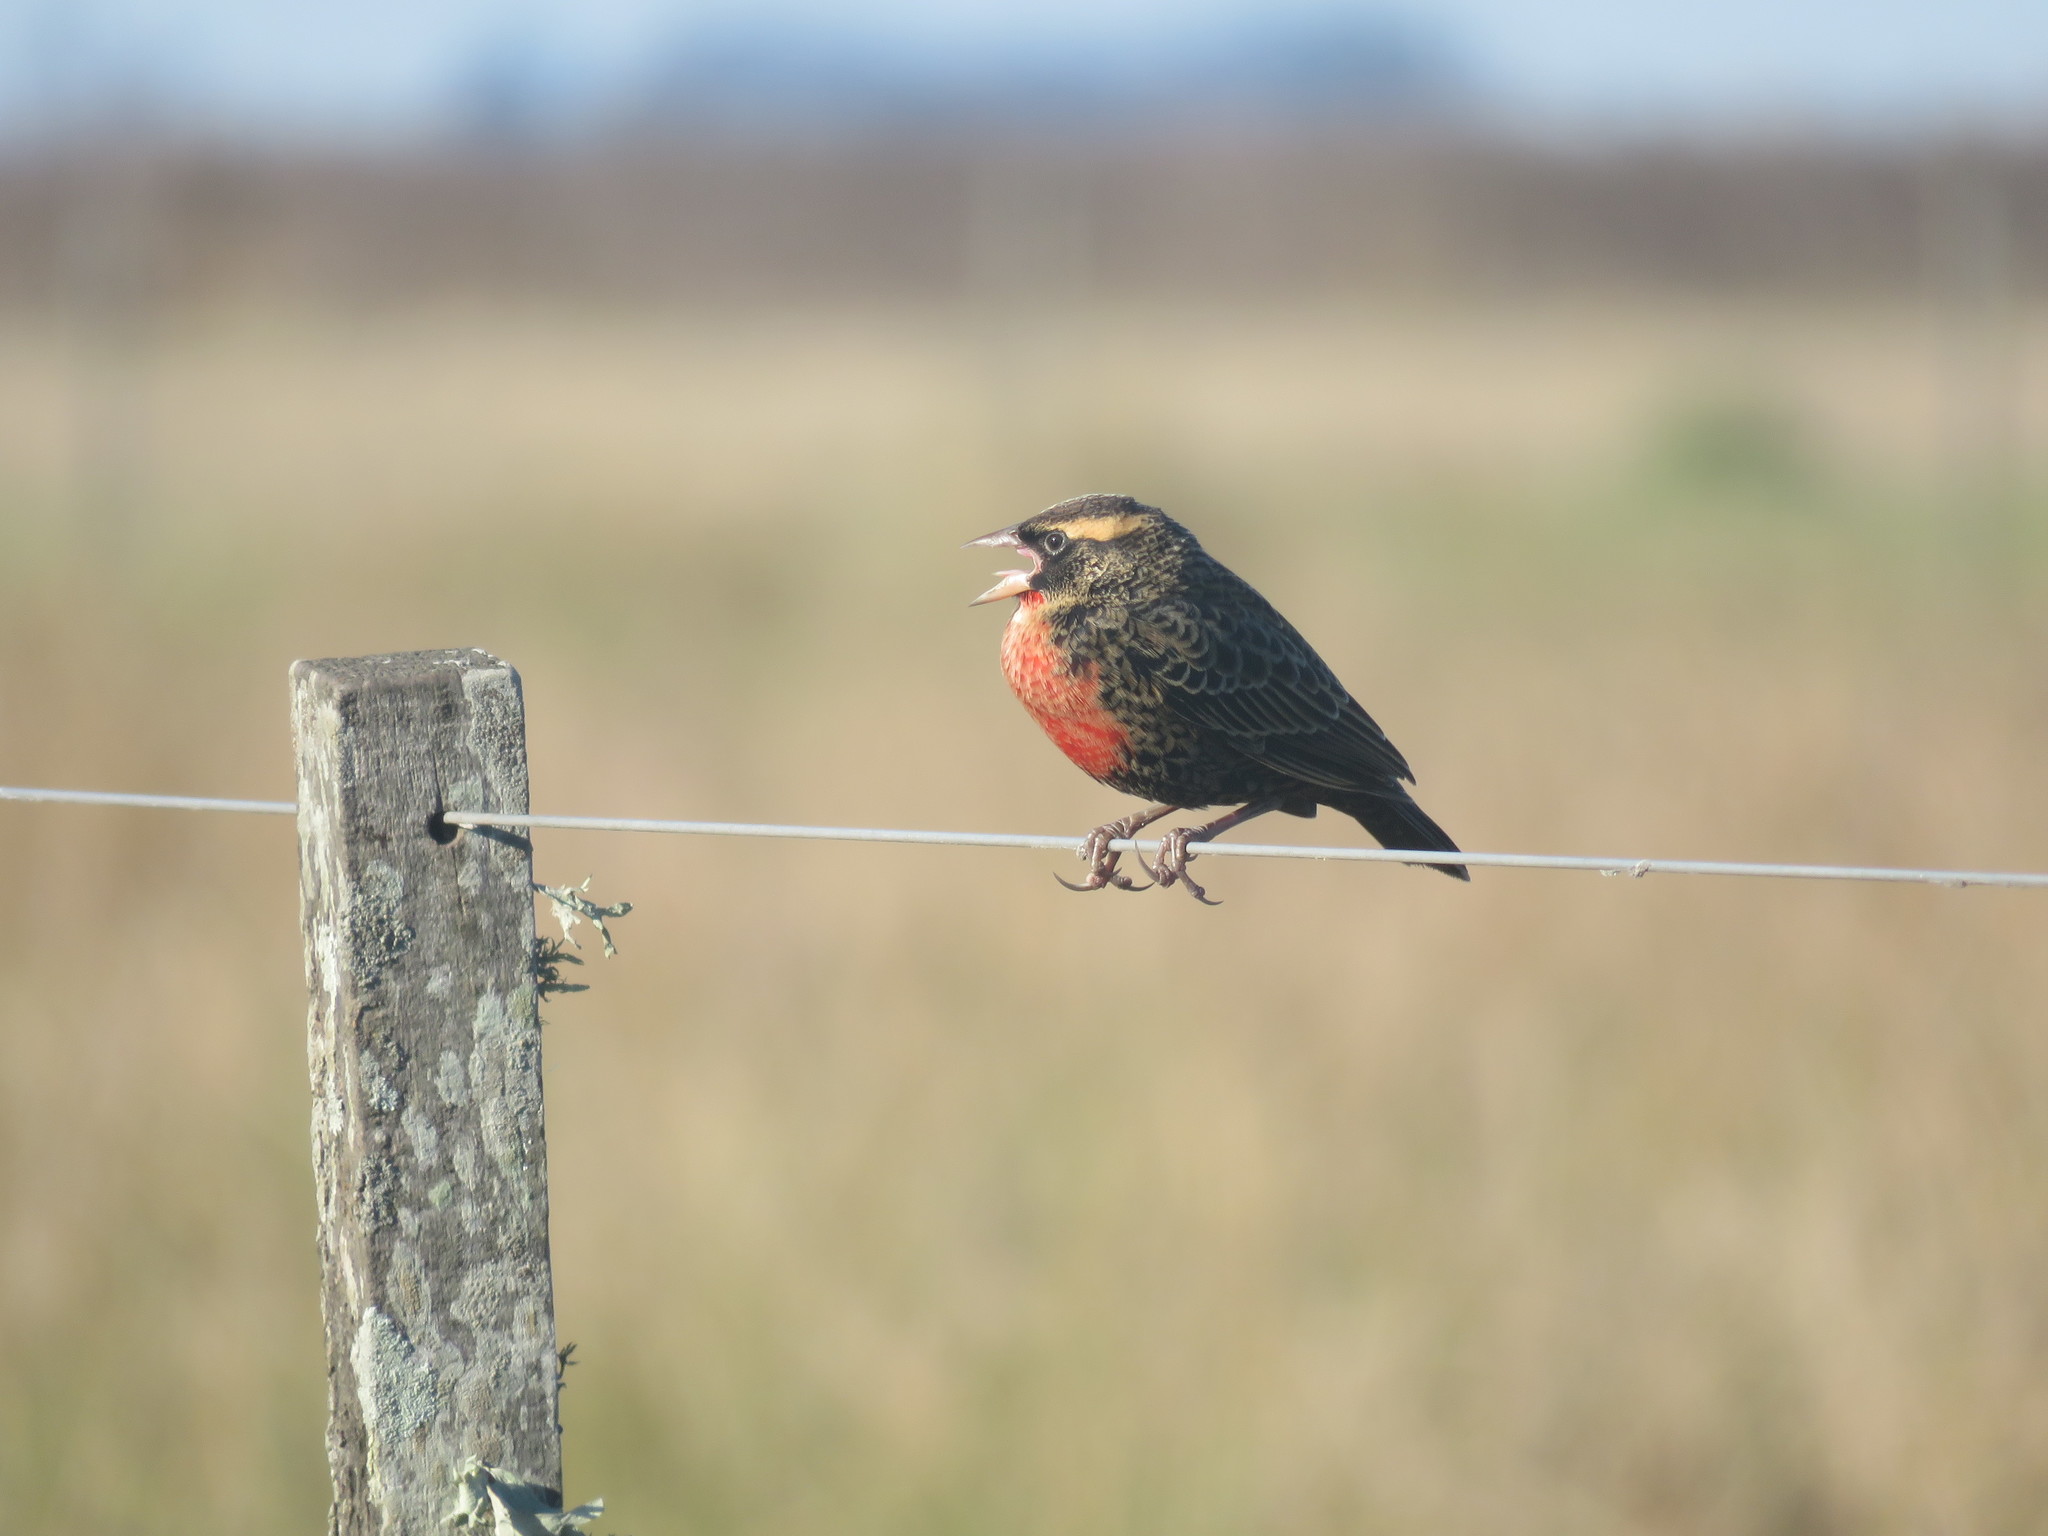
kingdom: Animalia
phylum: Chordata
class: Aves
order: Passeriformes
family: Icteridae
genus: Sturnella
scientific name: Sturnella superciliaris
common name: White-browed blackbird
